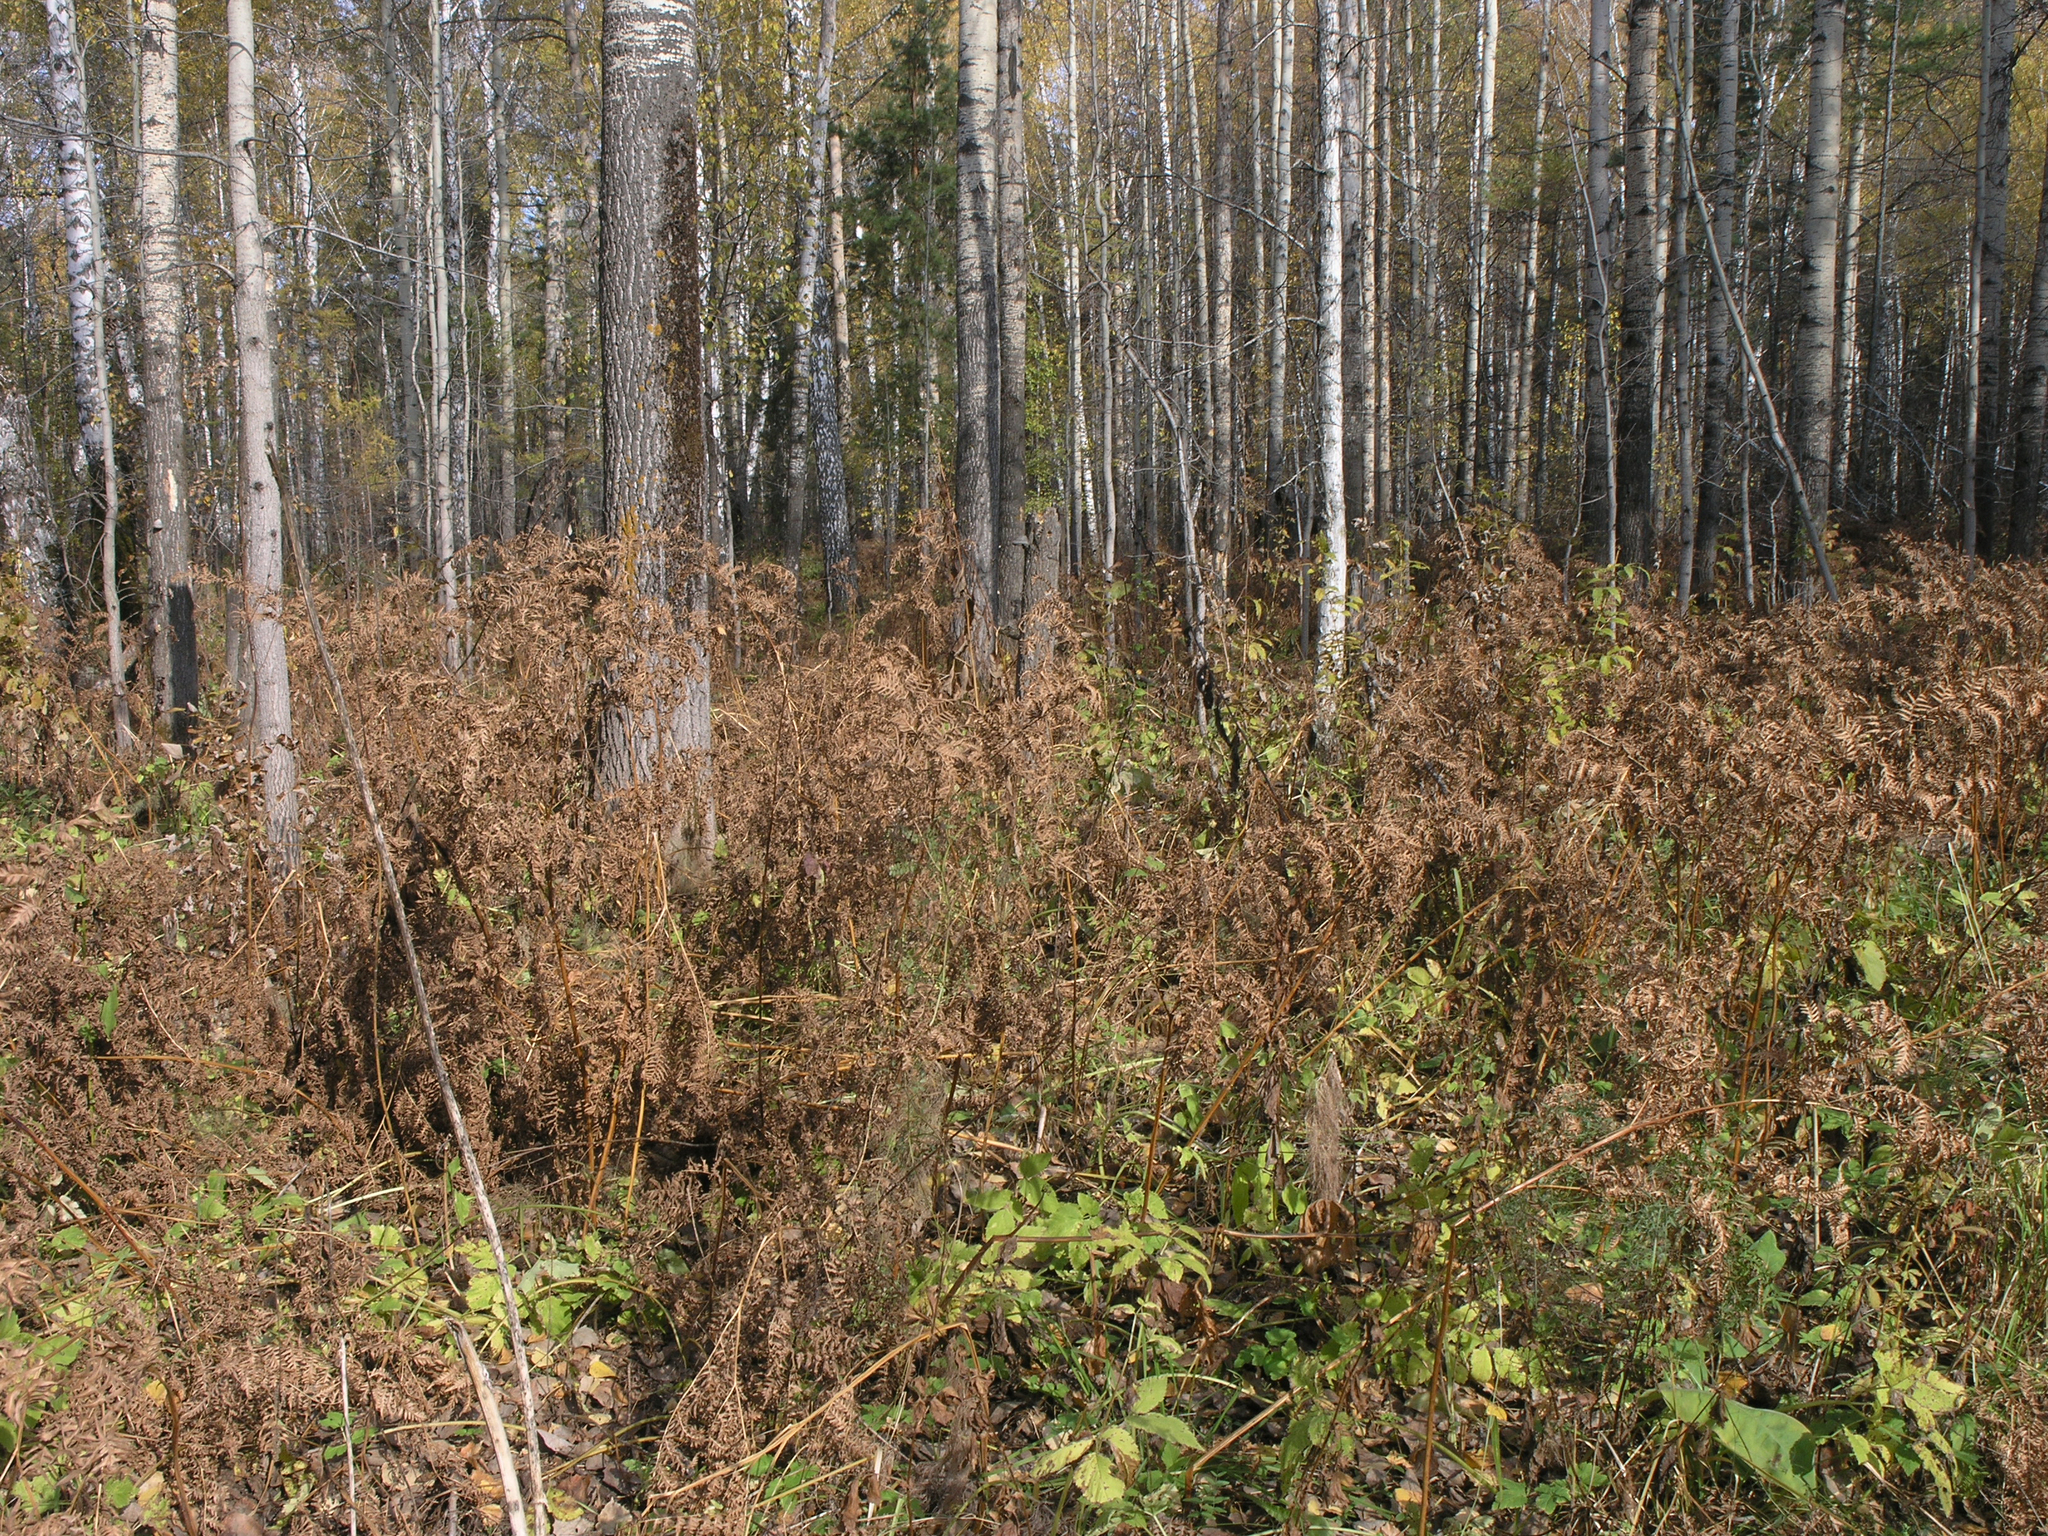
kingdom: Plantae
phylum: Tracheophyta
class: Polypodiopsida
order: Polypodiales
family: Dennstaedtiaceae
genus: Pteridium
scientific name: Pteridium aquilinum
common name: Bracken
